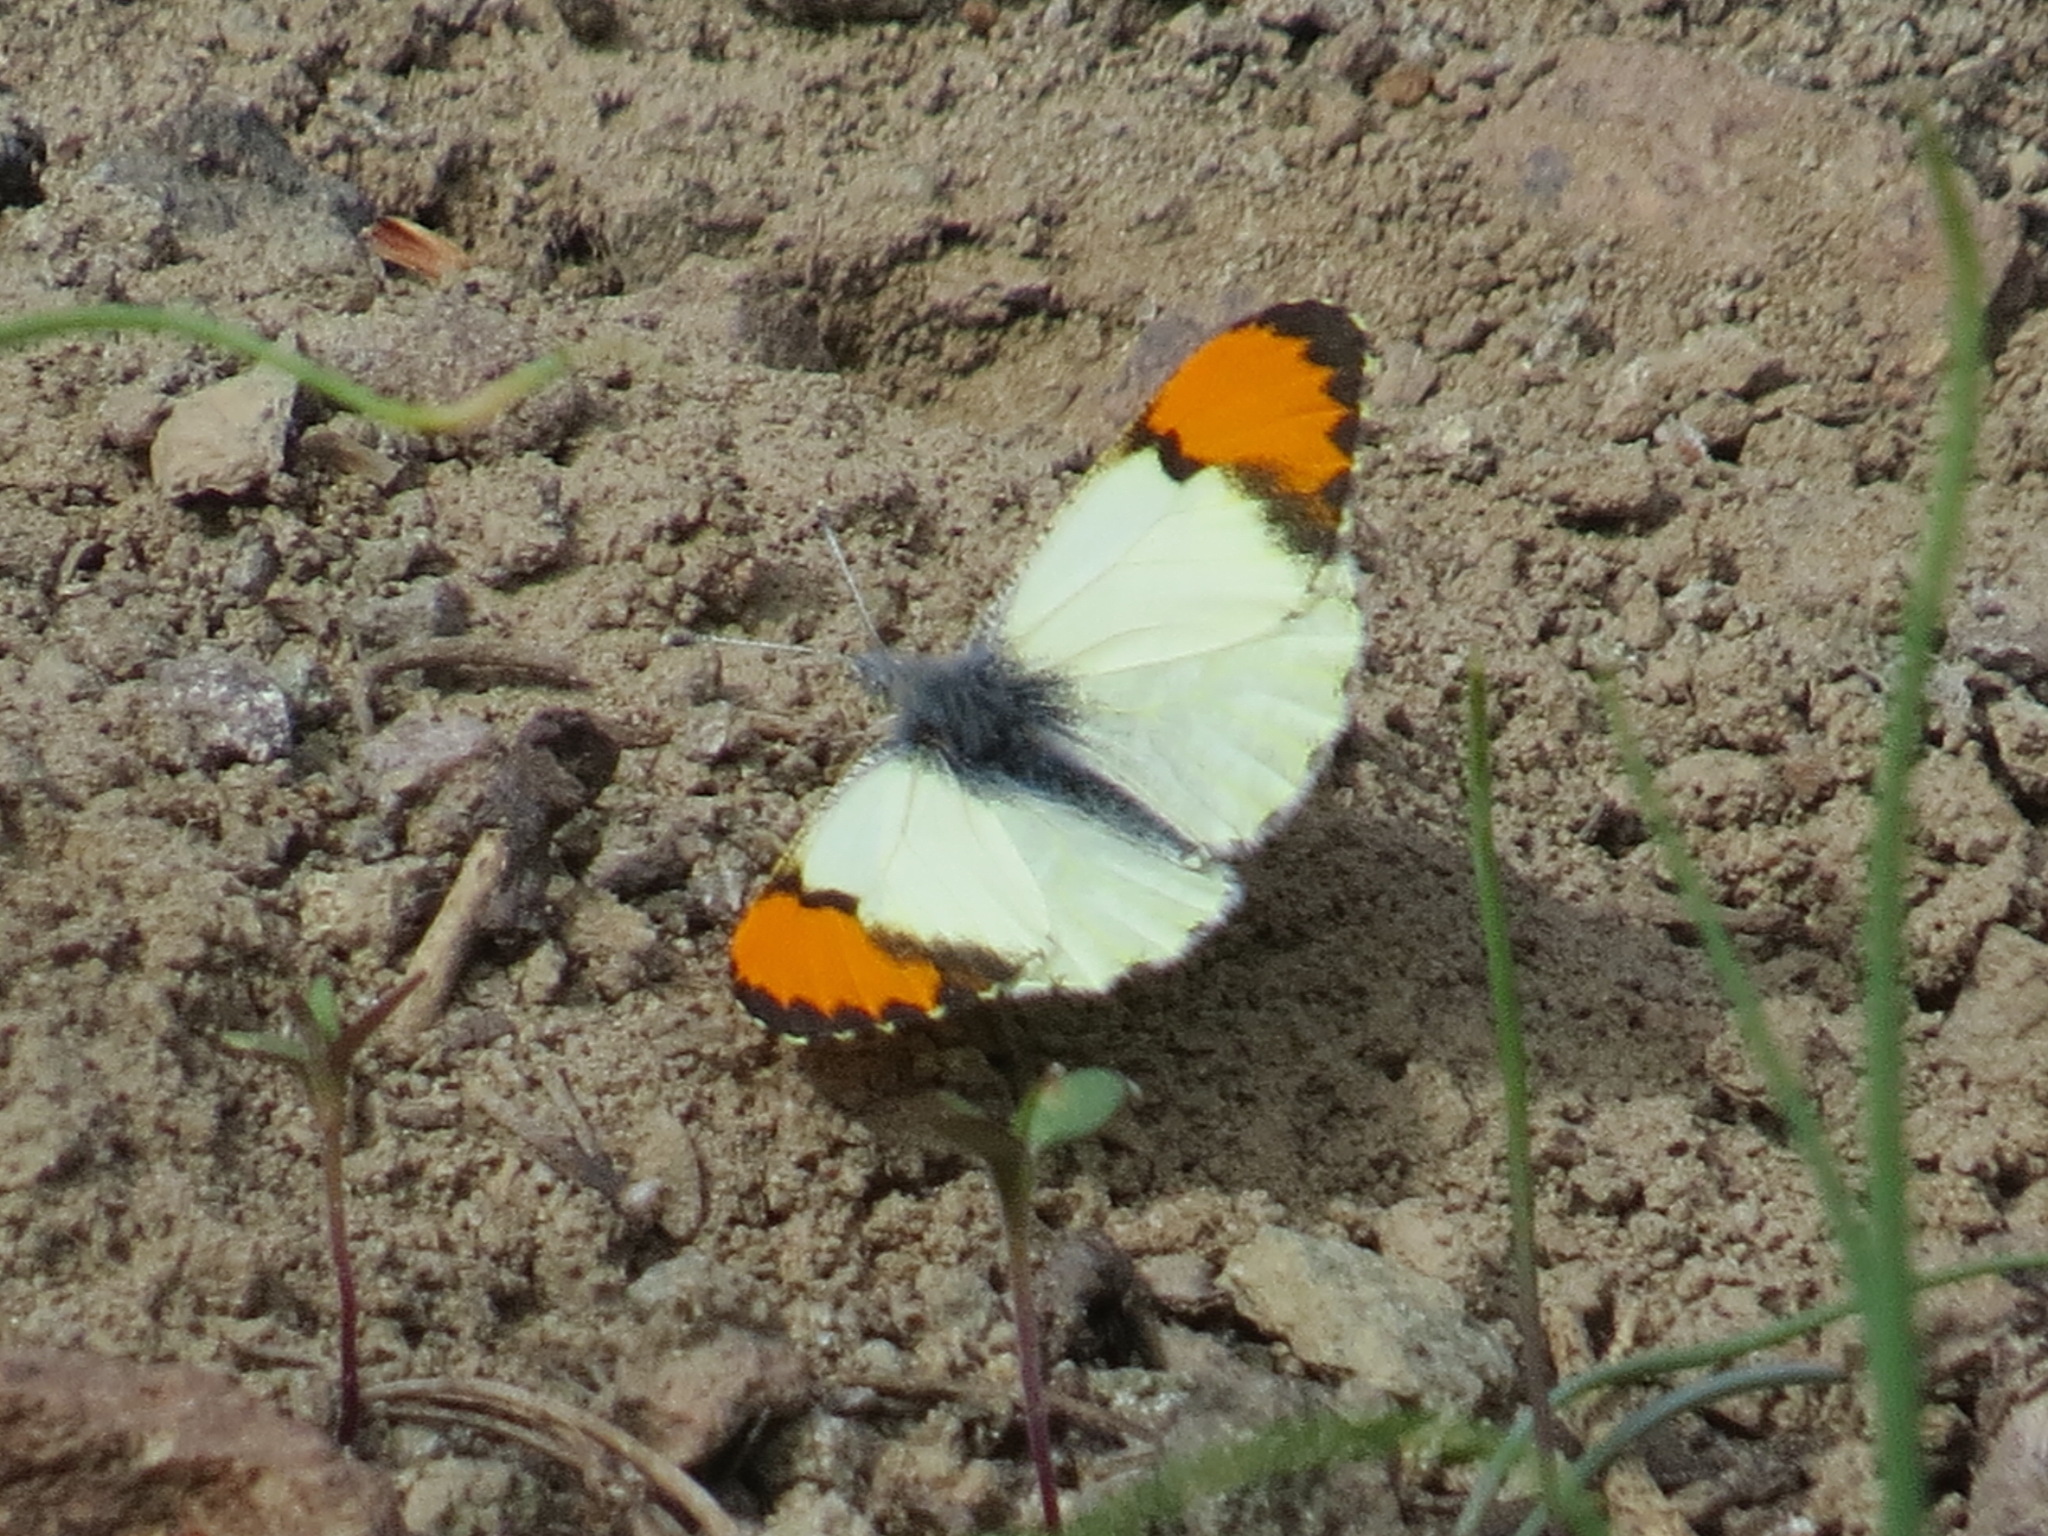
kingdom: Animalia
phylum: Arthropoda
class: Insecta
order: Lepidoptera
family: Pieridae
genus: Anthocharis
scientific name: Anthocharis julia
